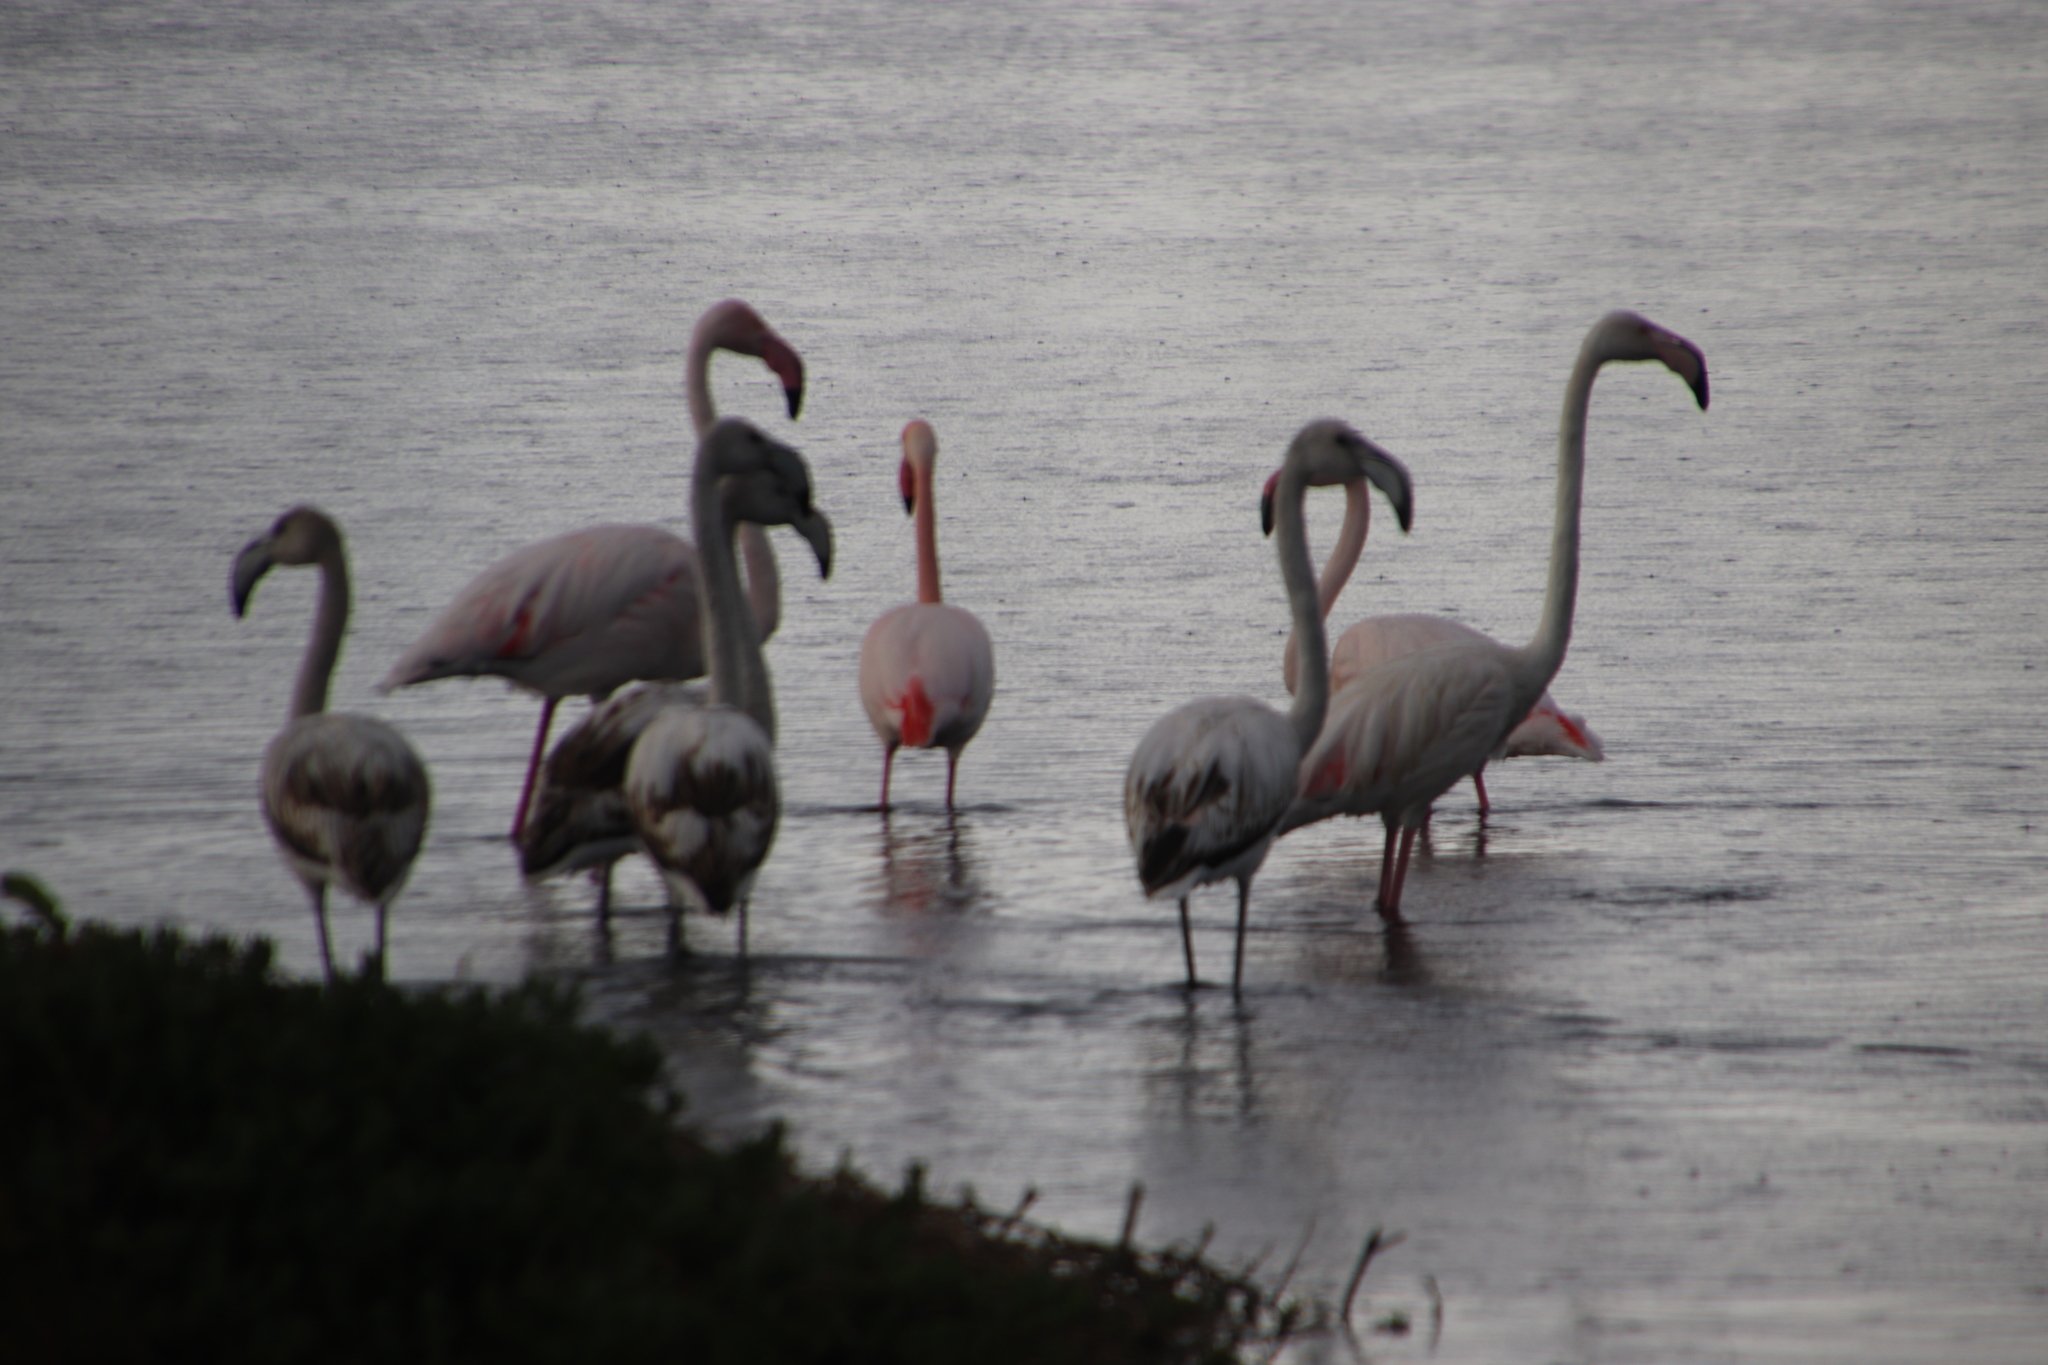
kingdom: Animalia
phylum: Chordata
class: Aves
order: Phoenicopteriformes
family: Phoenicopteridae
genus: Phoenicopterus
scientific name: Phoenicopterus roseus
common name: Greater flamingo
